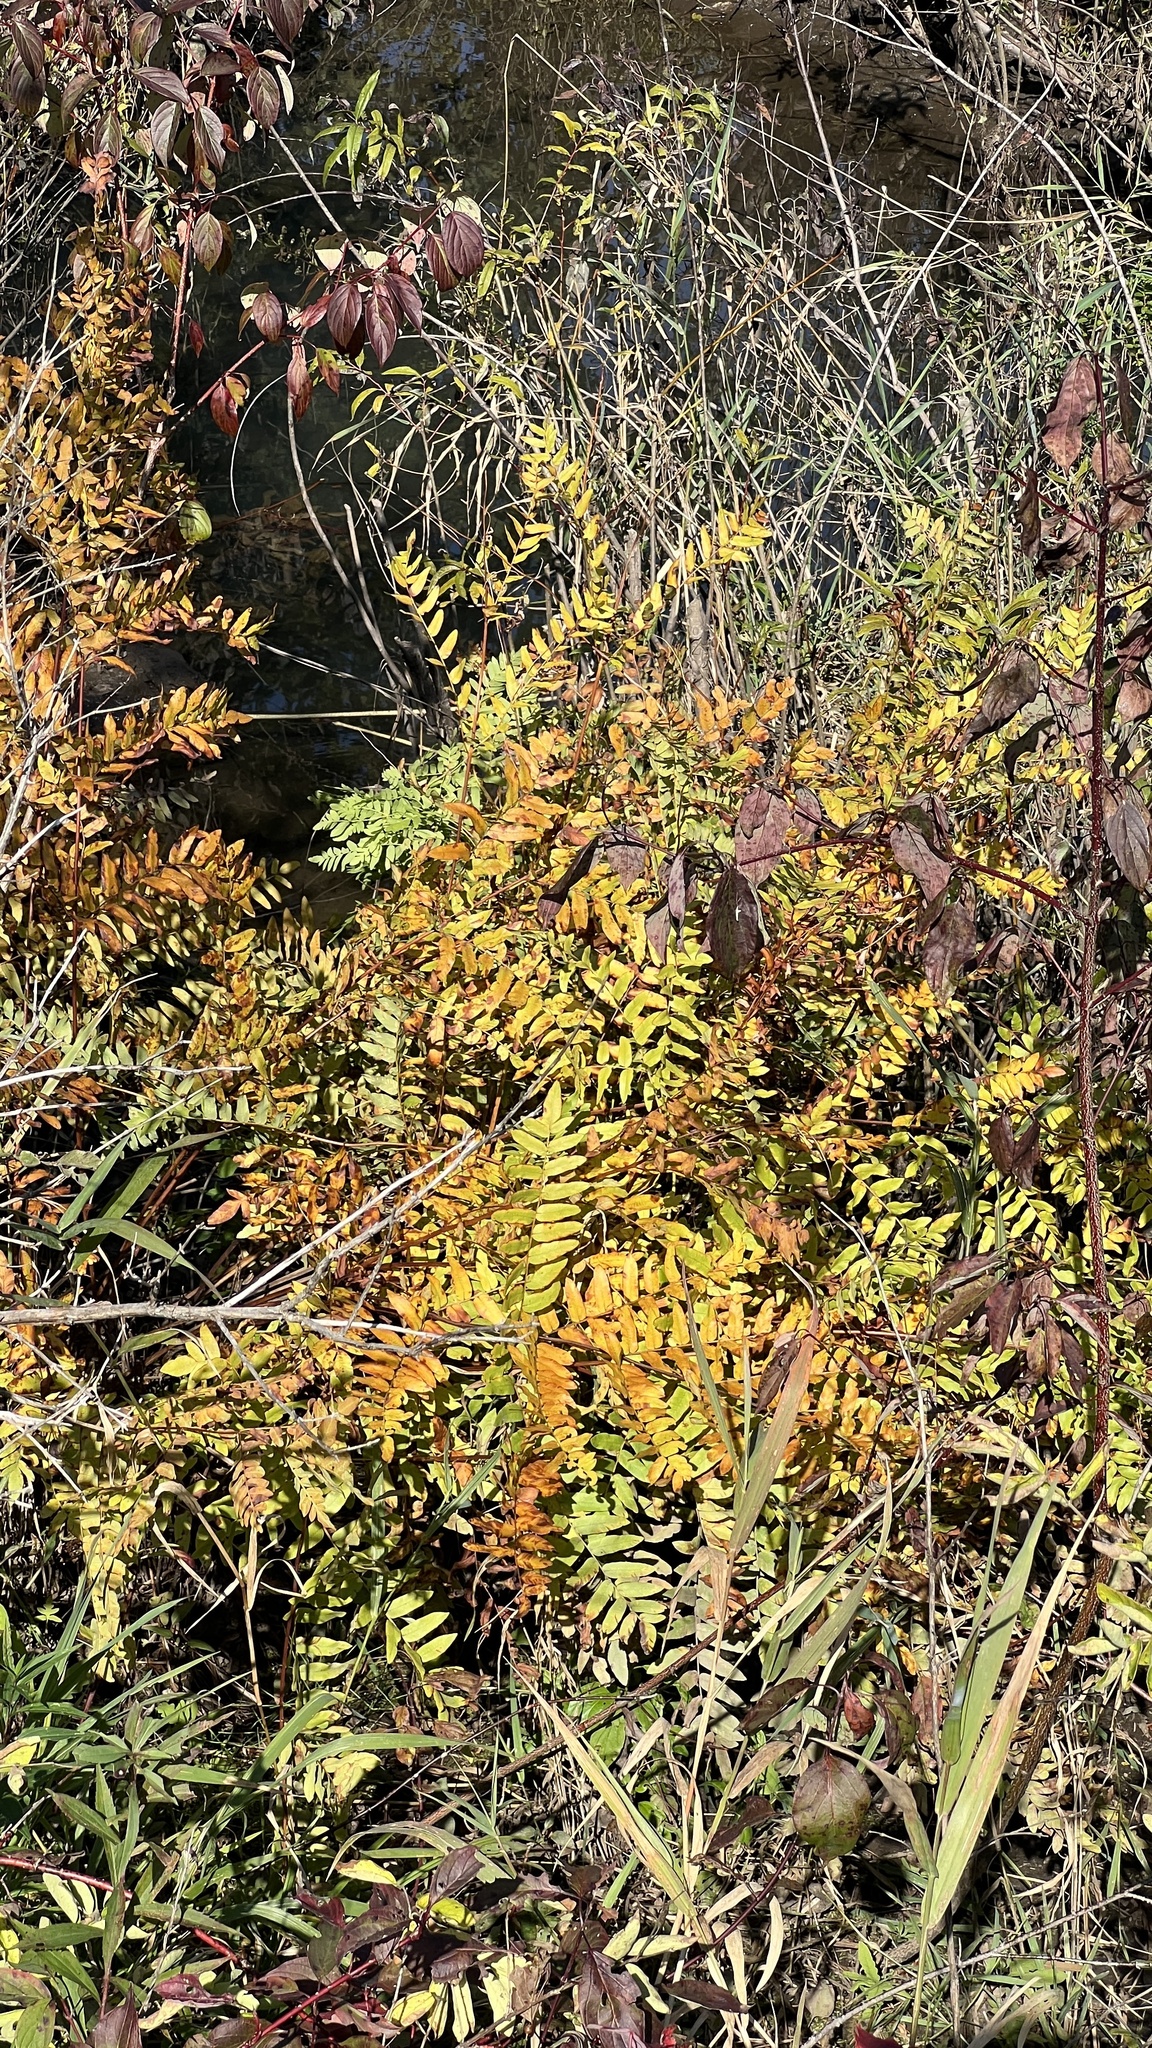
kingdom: Plantae
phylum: Tracheophyta
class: Polypodiopsida
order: Osmundales
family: Osmundaceae
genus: Osmunda
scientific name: Osmunda spectabilis
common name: American royal fern
